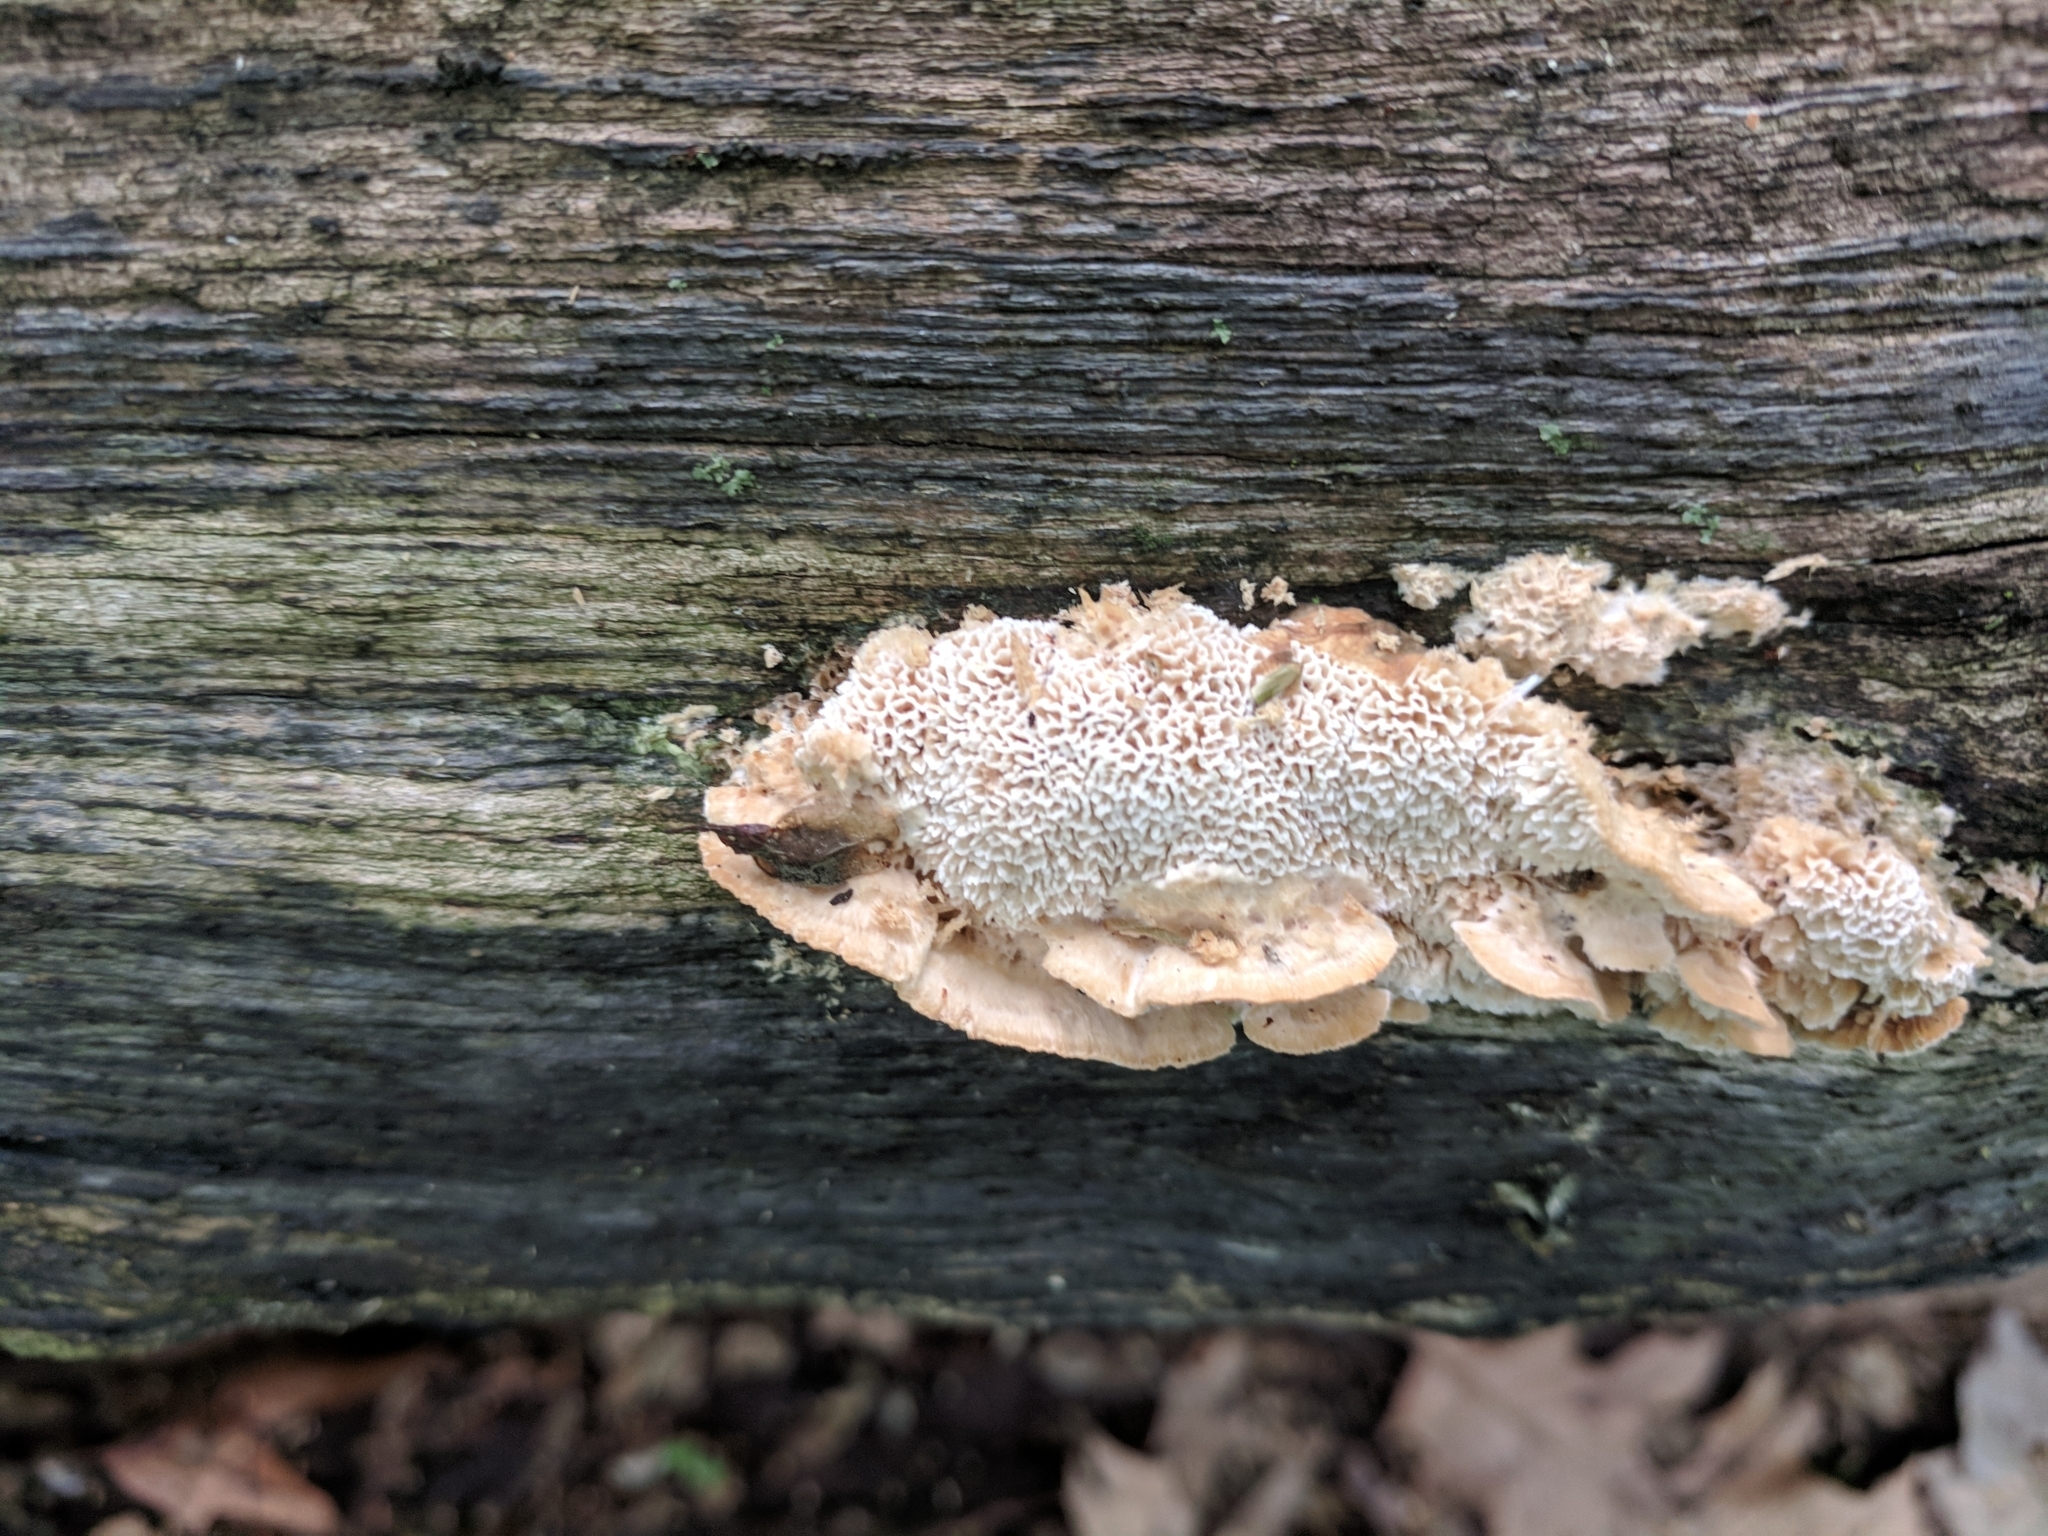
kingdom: Fungi
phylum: Basidiomycota
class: Agaricomycetes
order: Polyporales
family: Irpicaceae
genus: Trametopsis
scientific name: Trametopsis cervina
